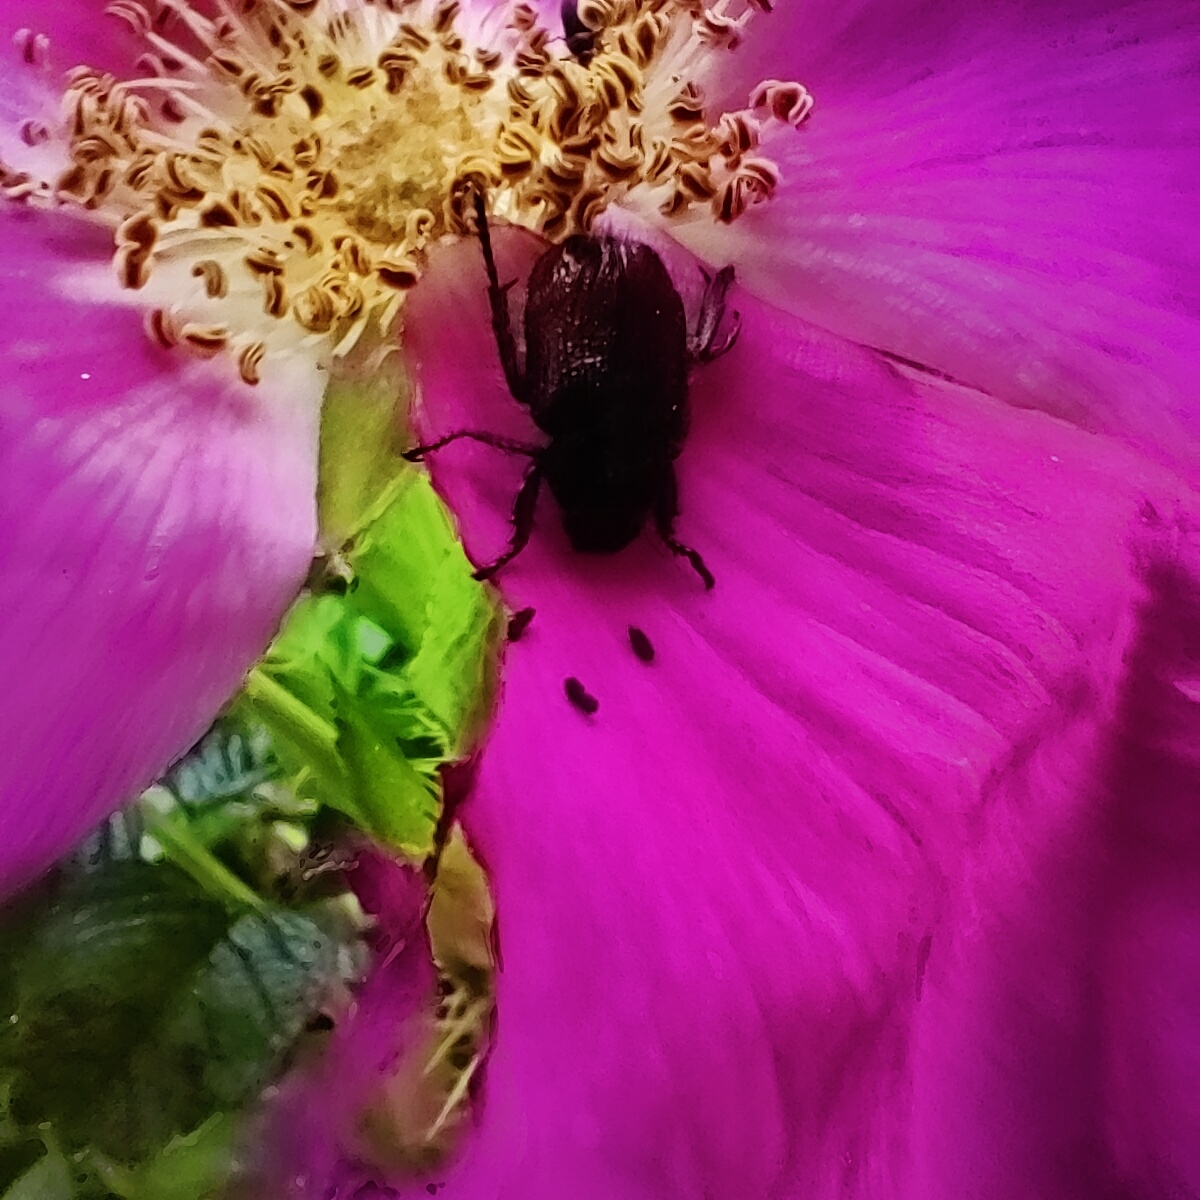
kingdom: Animalia
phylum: Arthropoda
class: Insecta
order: Coleoptera
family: Scarabaeidae
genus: Phyllopertha
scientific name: Phyllopertha horticola
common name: Garden chafer
